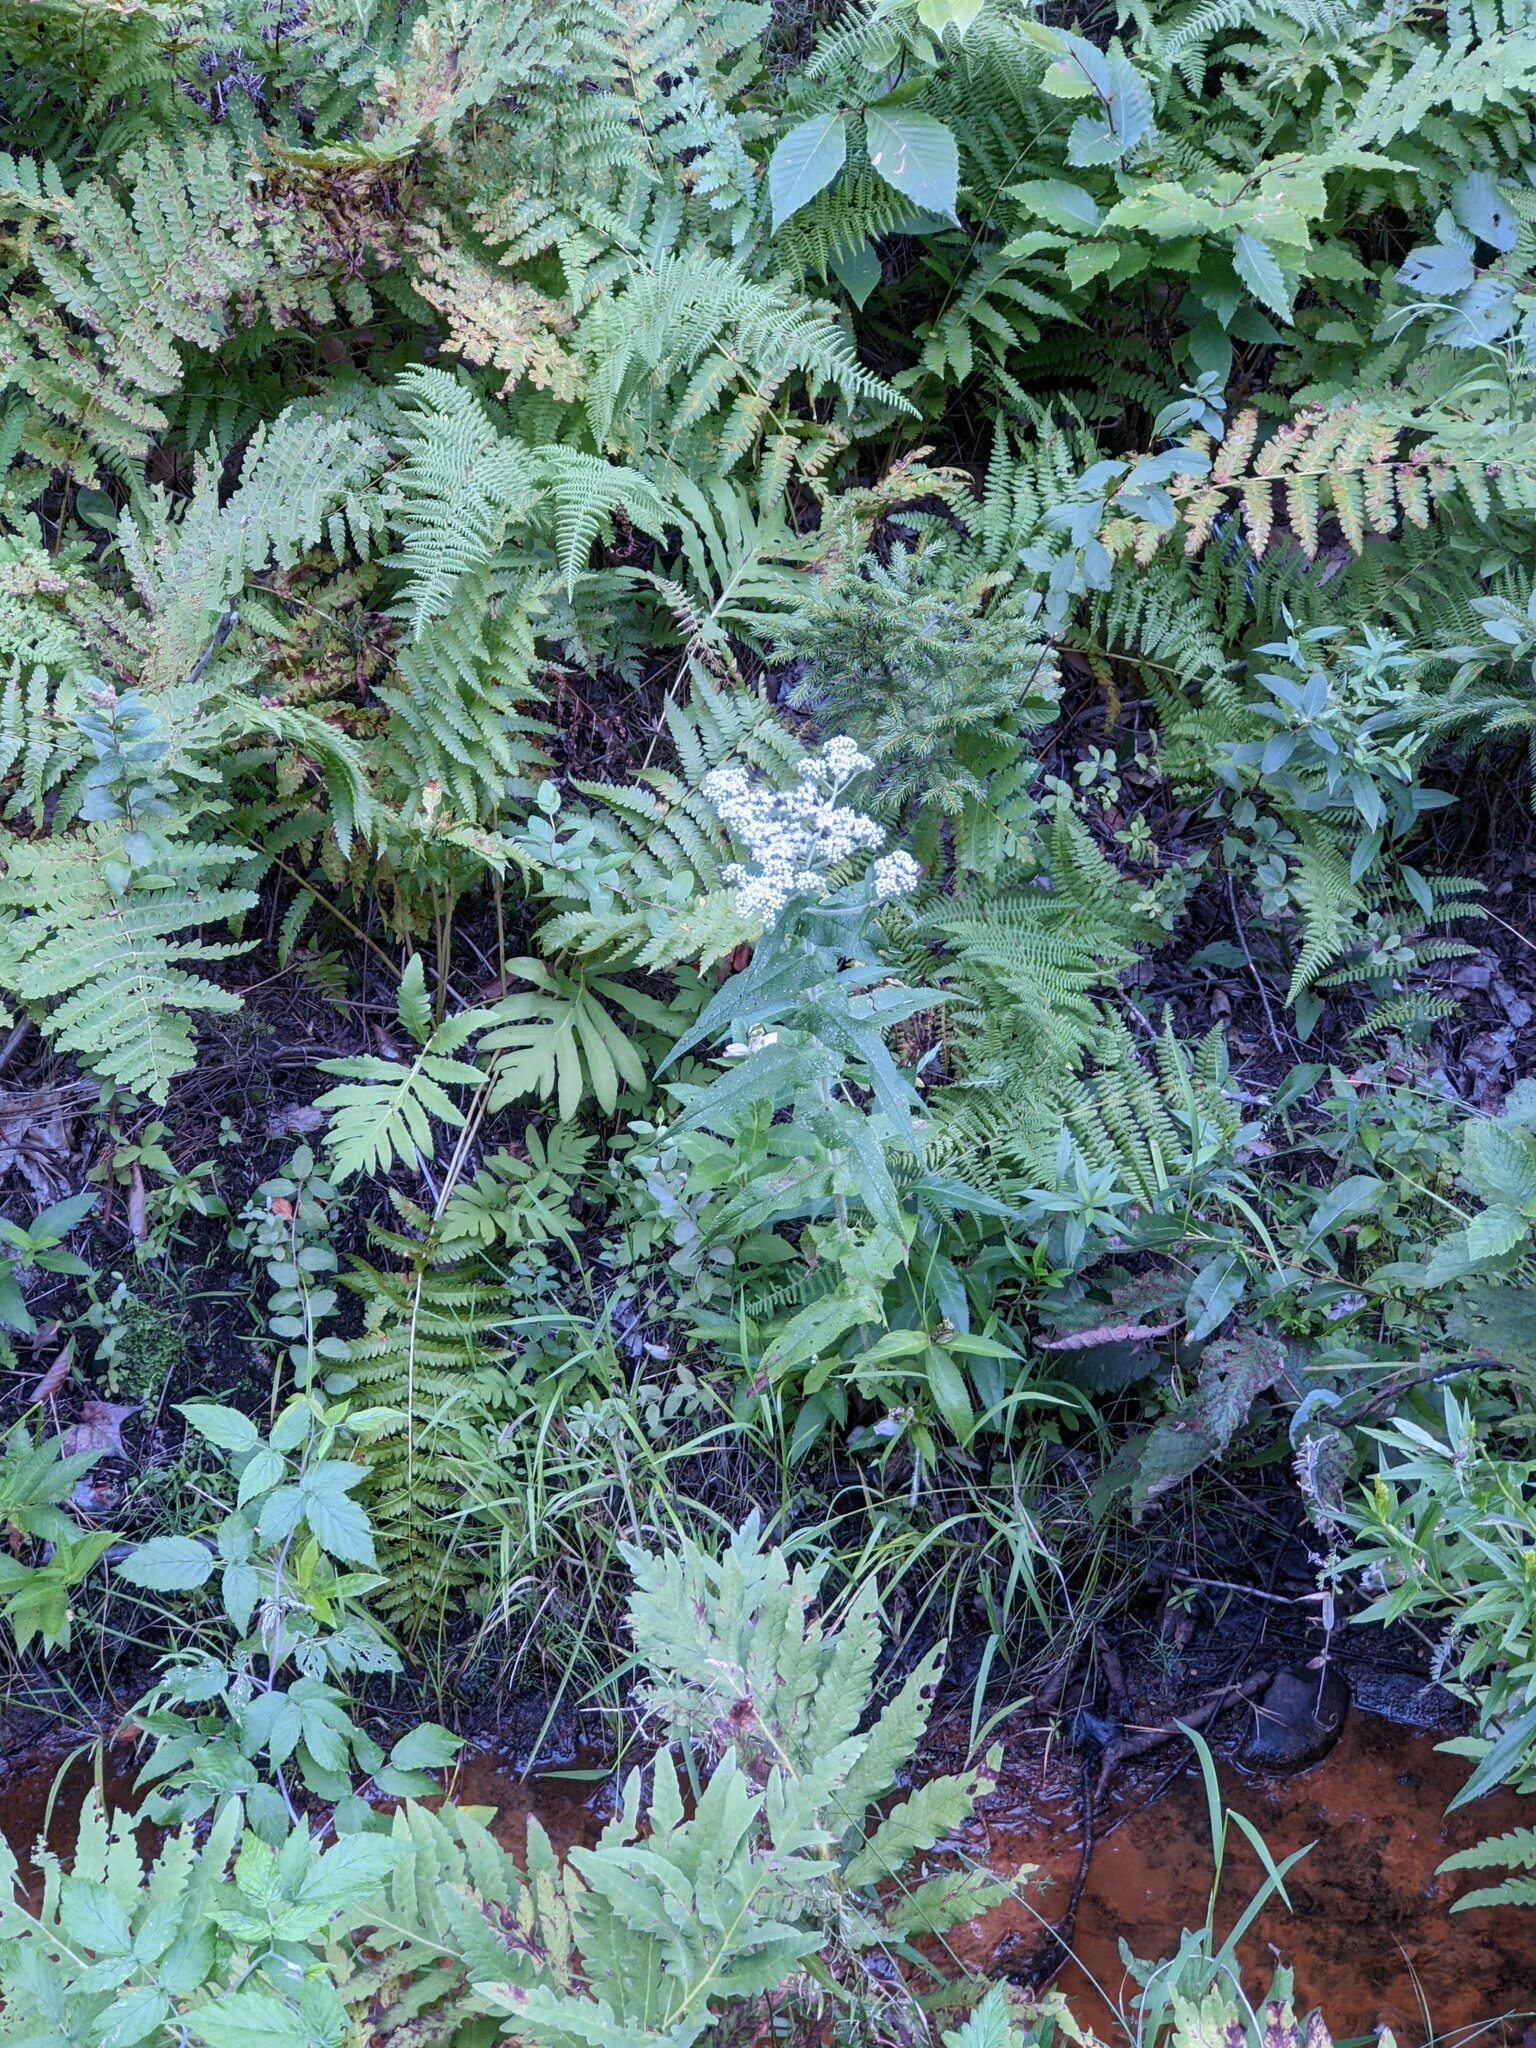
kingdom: Plantae
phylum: Tracheophyta
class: Magnoliopsida
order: Asterales
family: Asteraceae
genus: Eupatorium
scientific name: Eupatorium perfoliatum
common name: Boneset
